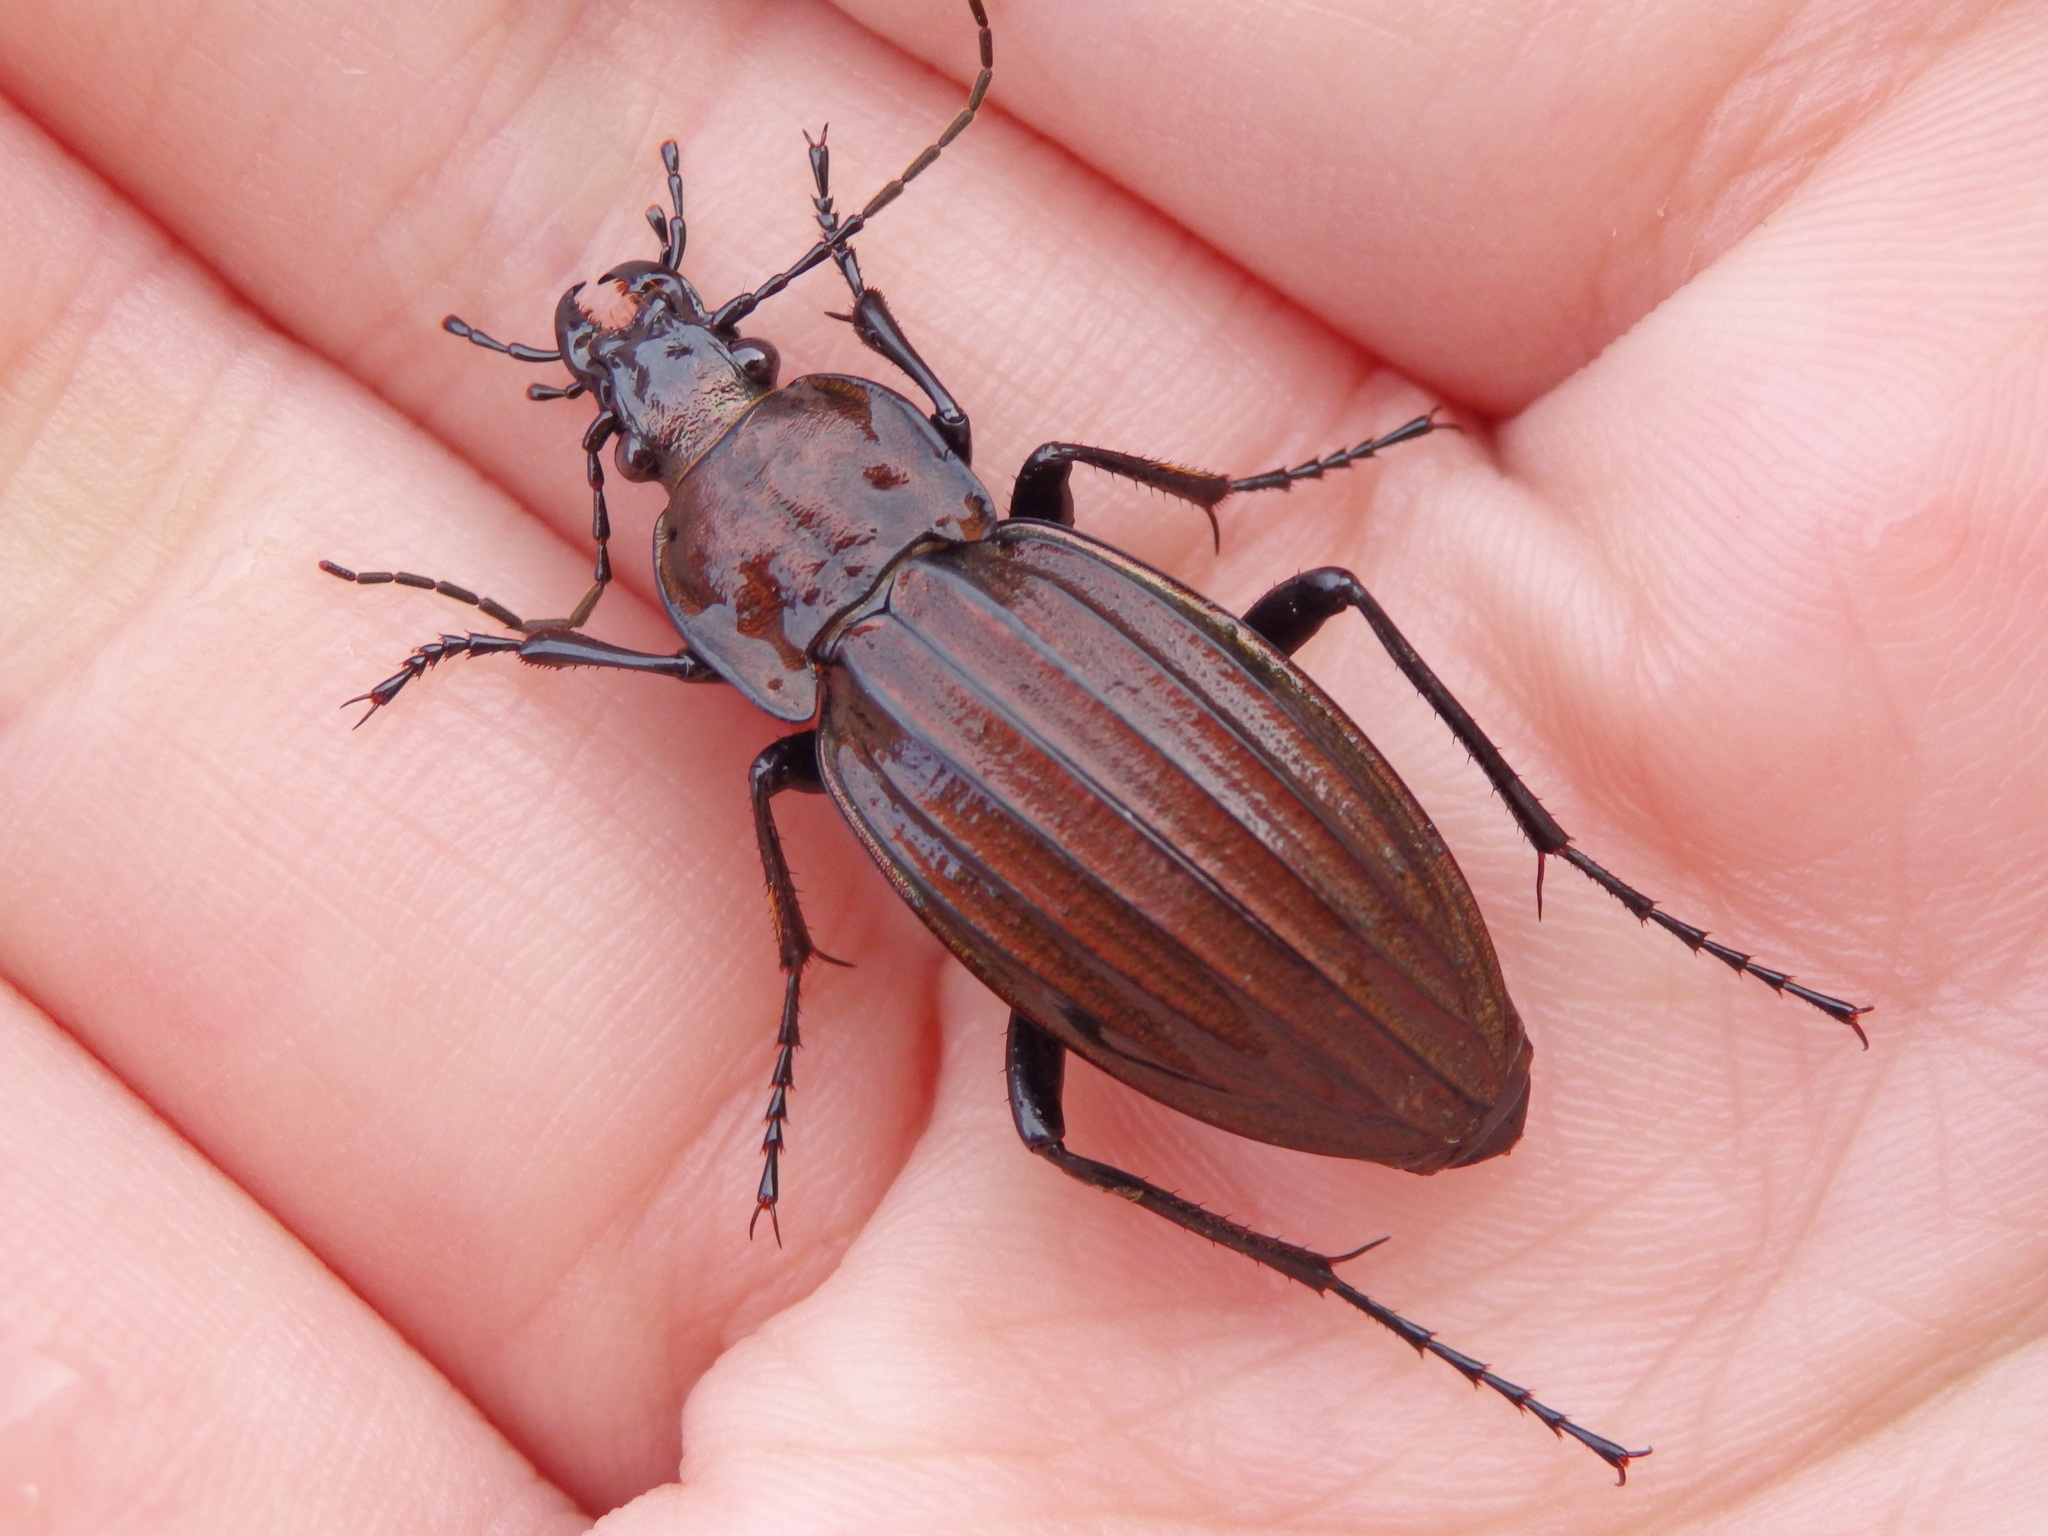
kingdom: Animalia
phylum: Arthropoda
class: Insecta
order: Coleoptera
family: Carabidae
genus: Carabus
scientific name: Carabus melancholicus
